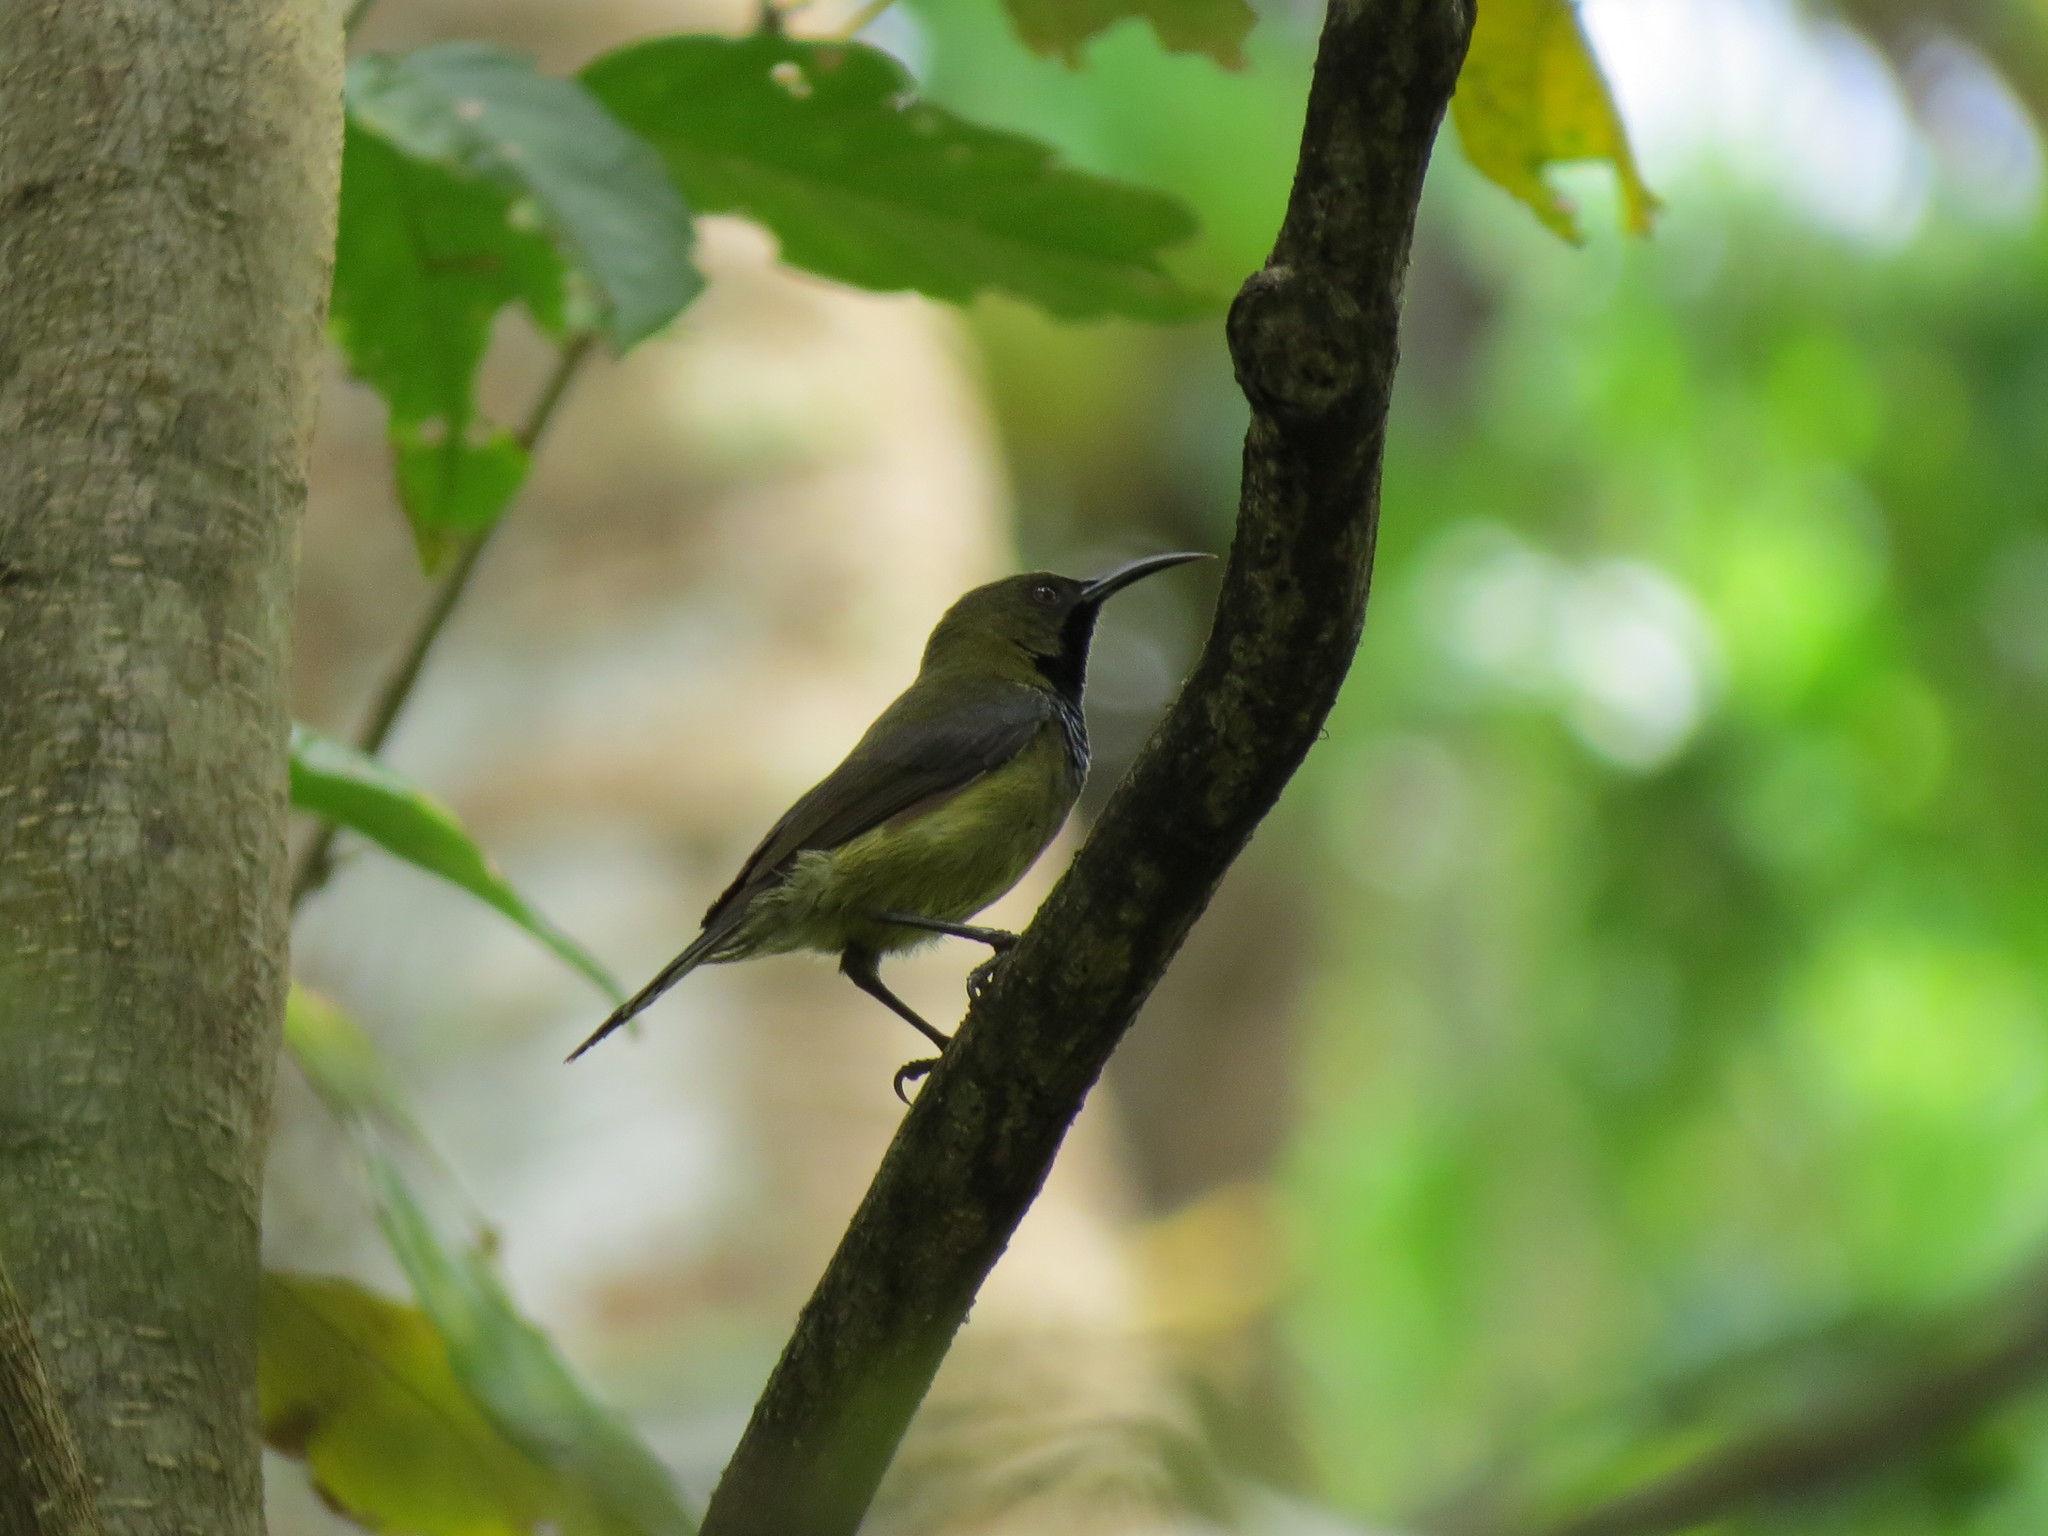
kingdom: Animalia
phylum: Chordata
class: Aves
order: Passeriformes
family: Nectariniidae
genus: Anabathmis
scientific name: Anabathmis hartlaubii
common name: Principe sunbird
